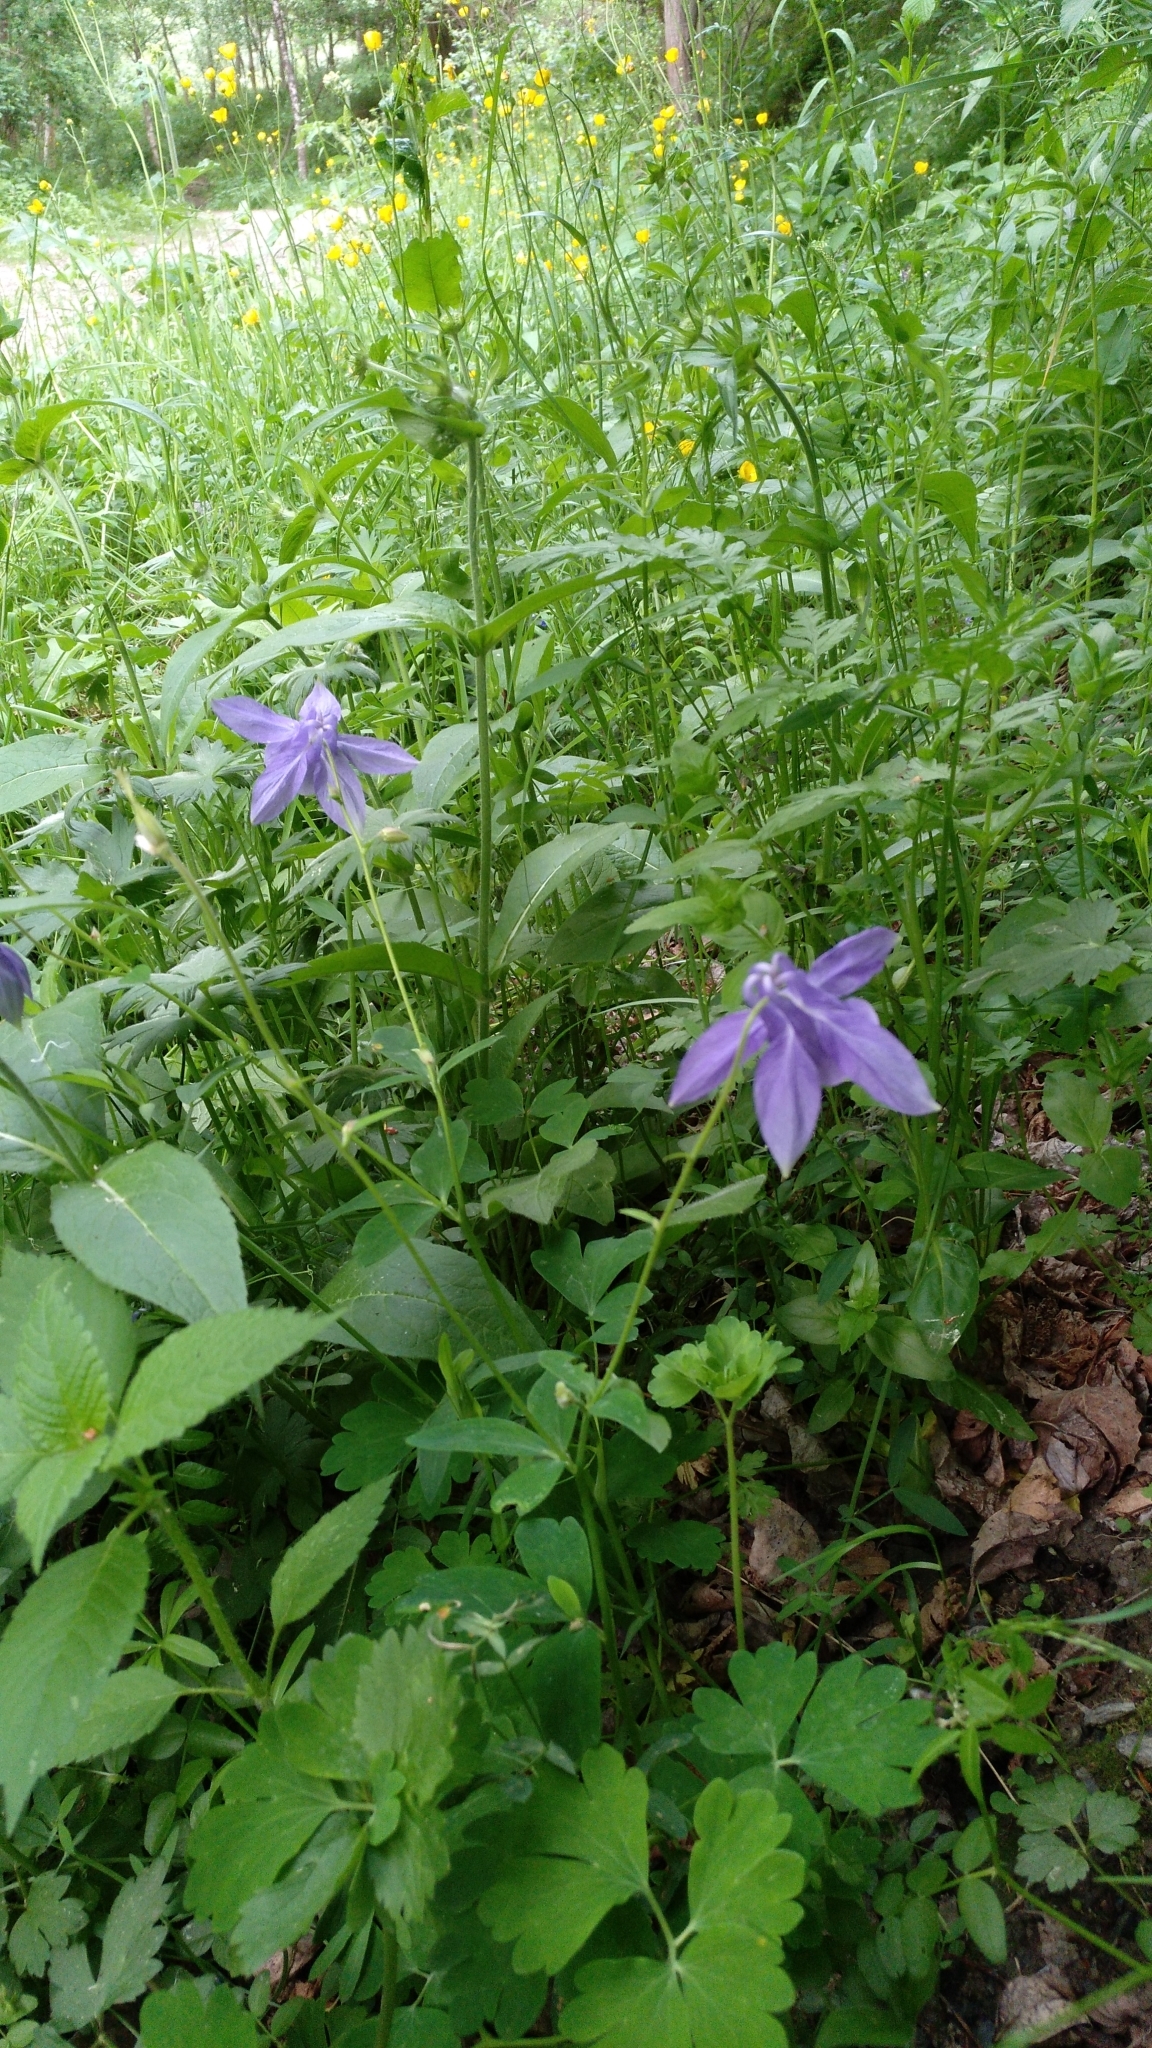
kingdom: Plantae
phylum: Tracheophyta
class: Magnoliopsida
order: Ranunculales
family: Ranunculaceae
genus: Aquilegia
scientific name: Aquilegia vulgaris
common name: Columbine
